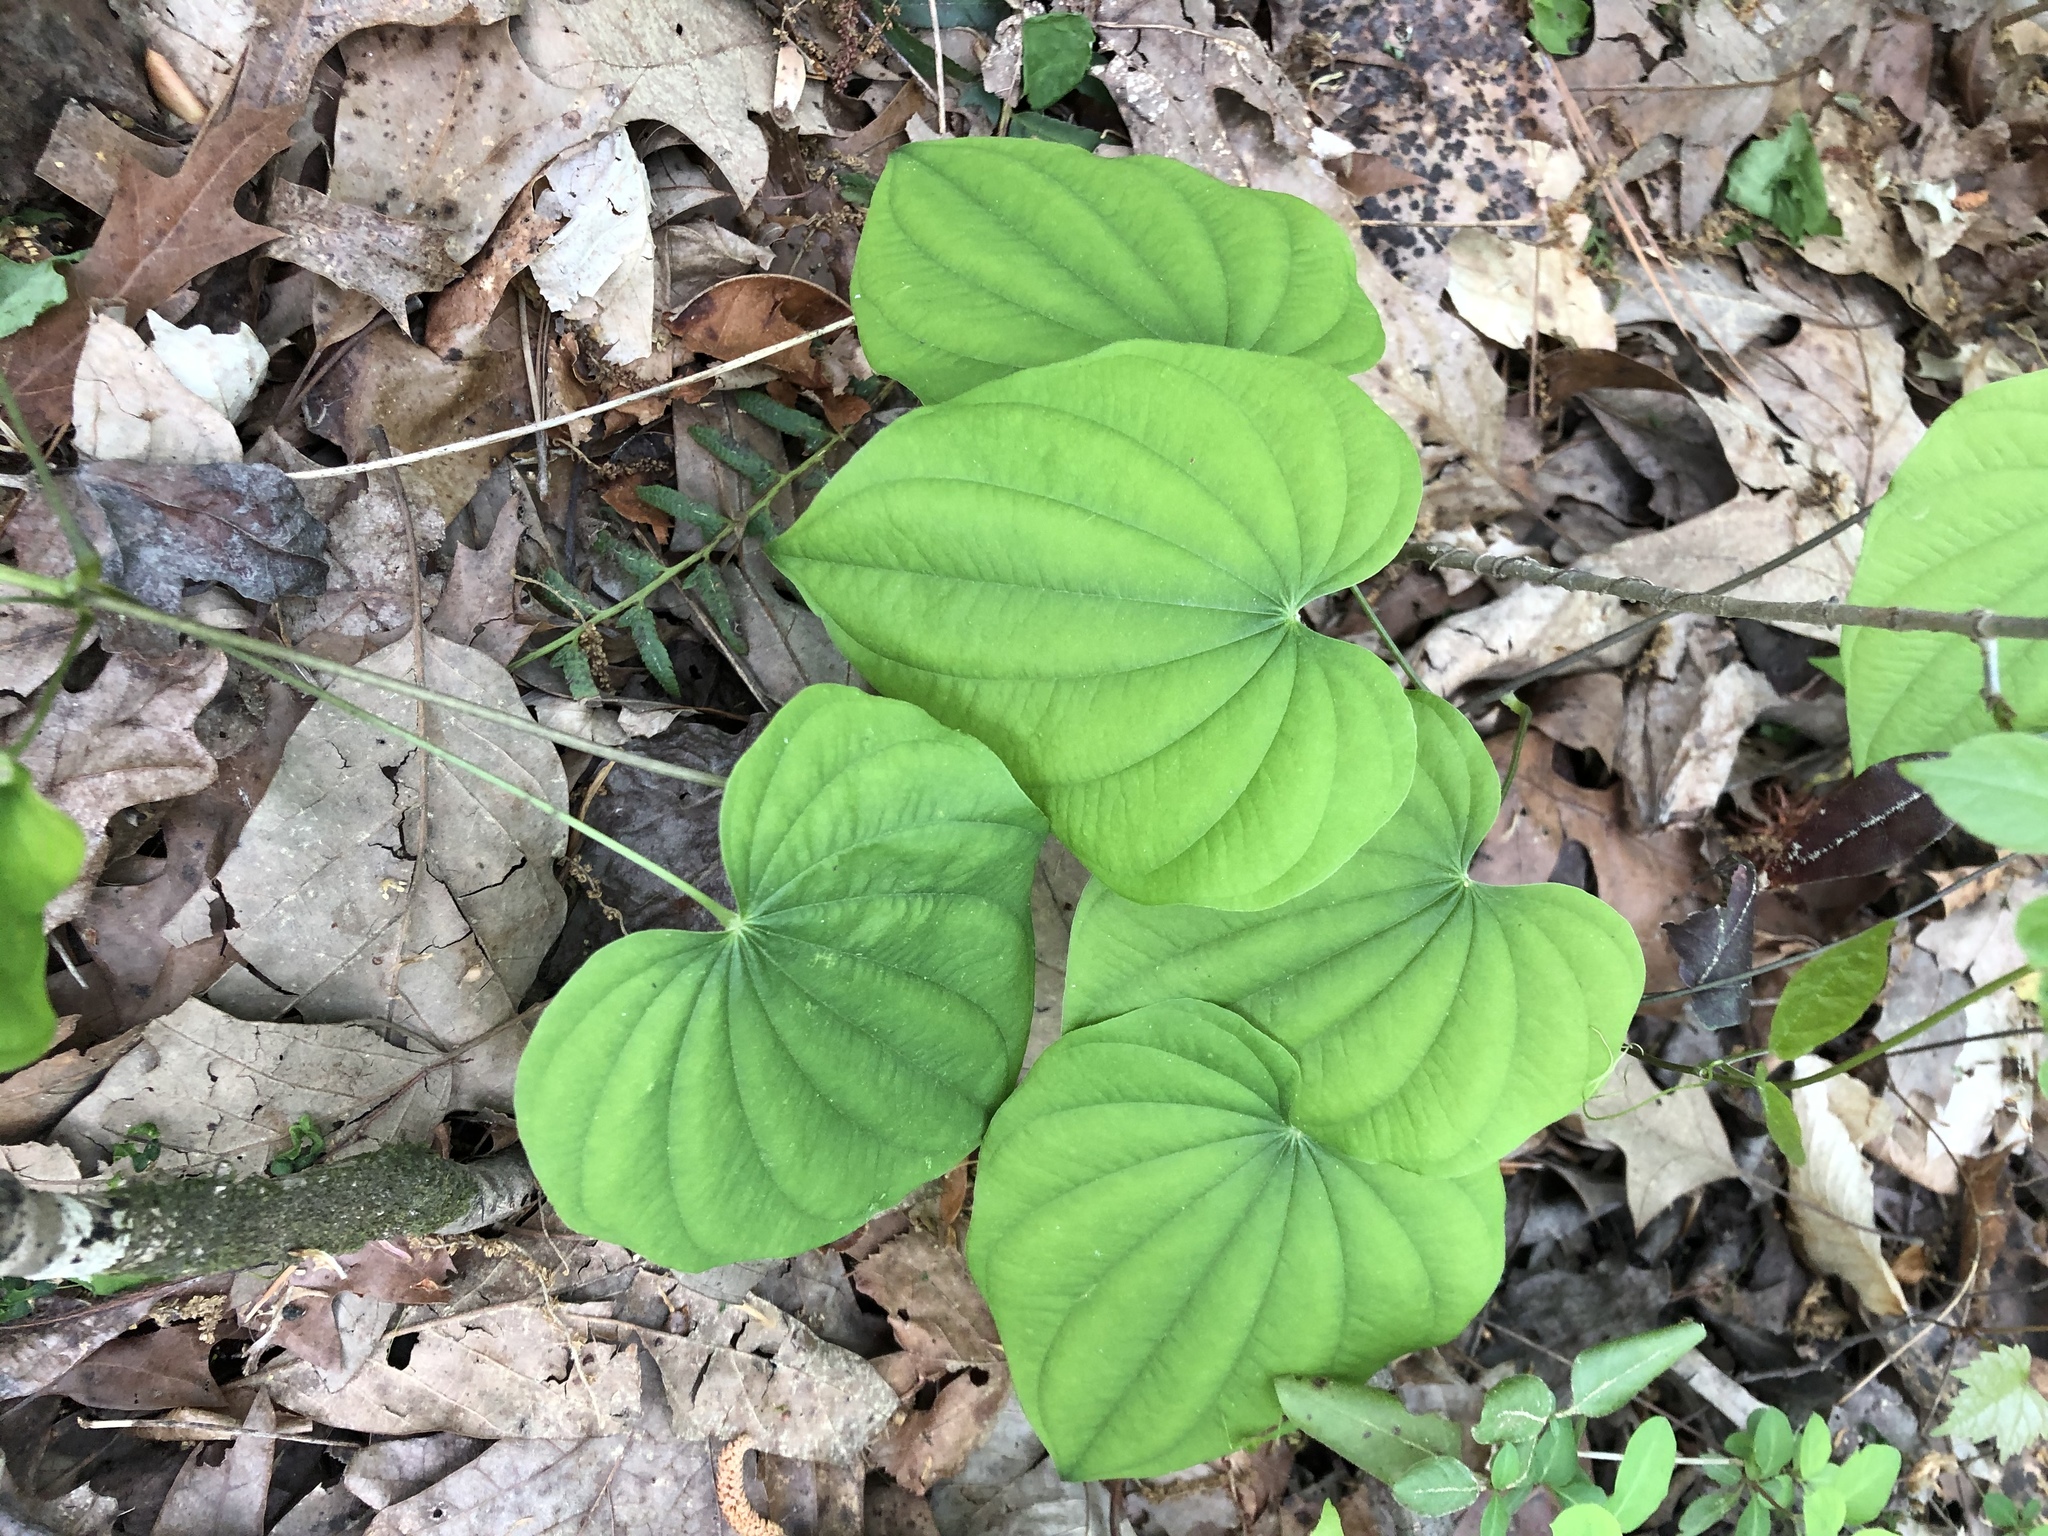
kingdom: Plantae
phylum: Tracheophyta
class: Liliopsida
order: Dioscoreales
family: Dioscoreaceae
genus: Dioscorea
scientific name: Dioscorea villosa
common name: Wild yam
